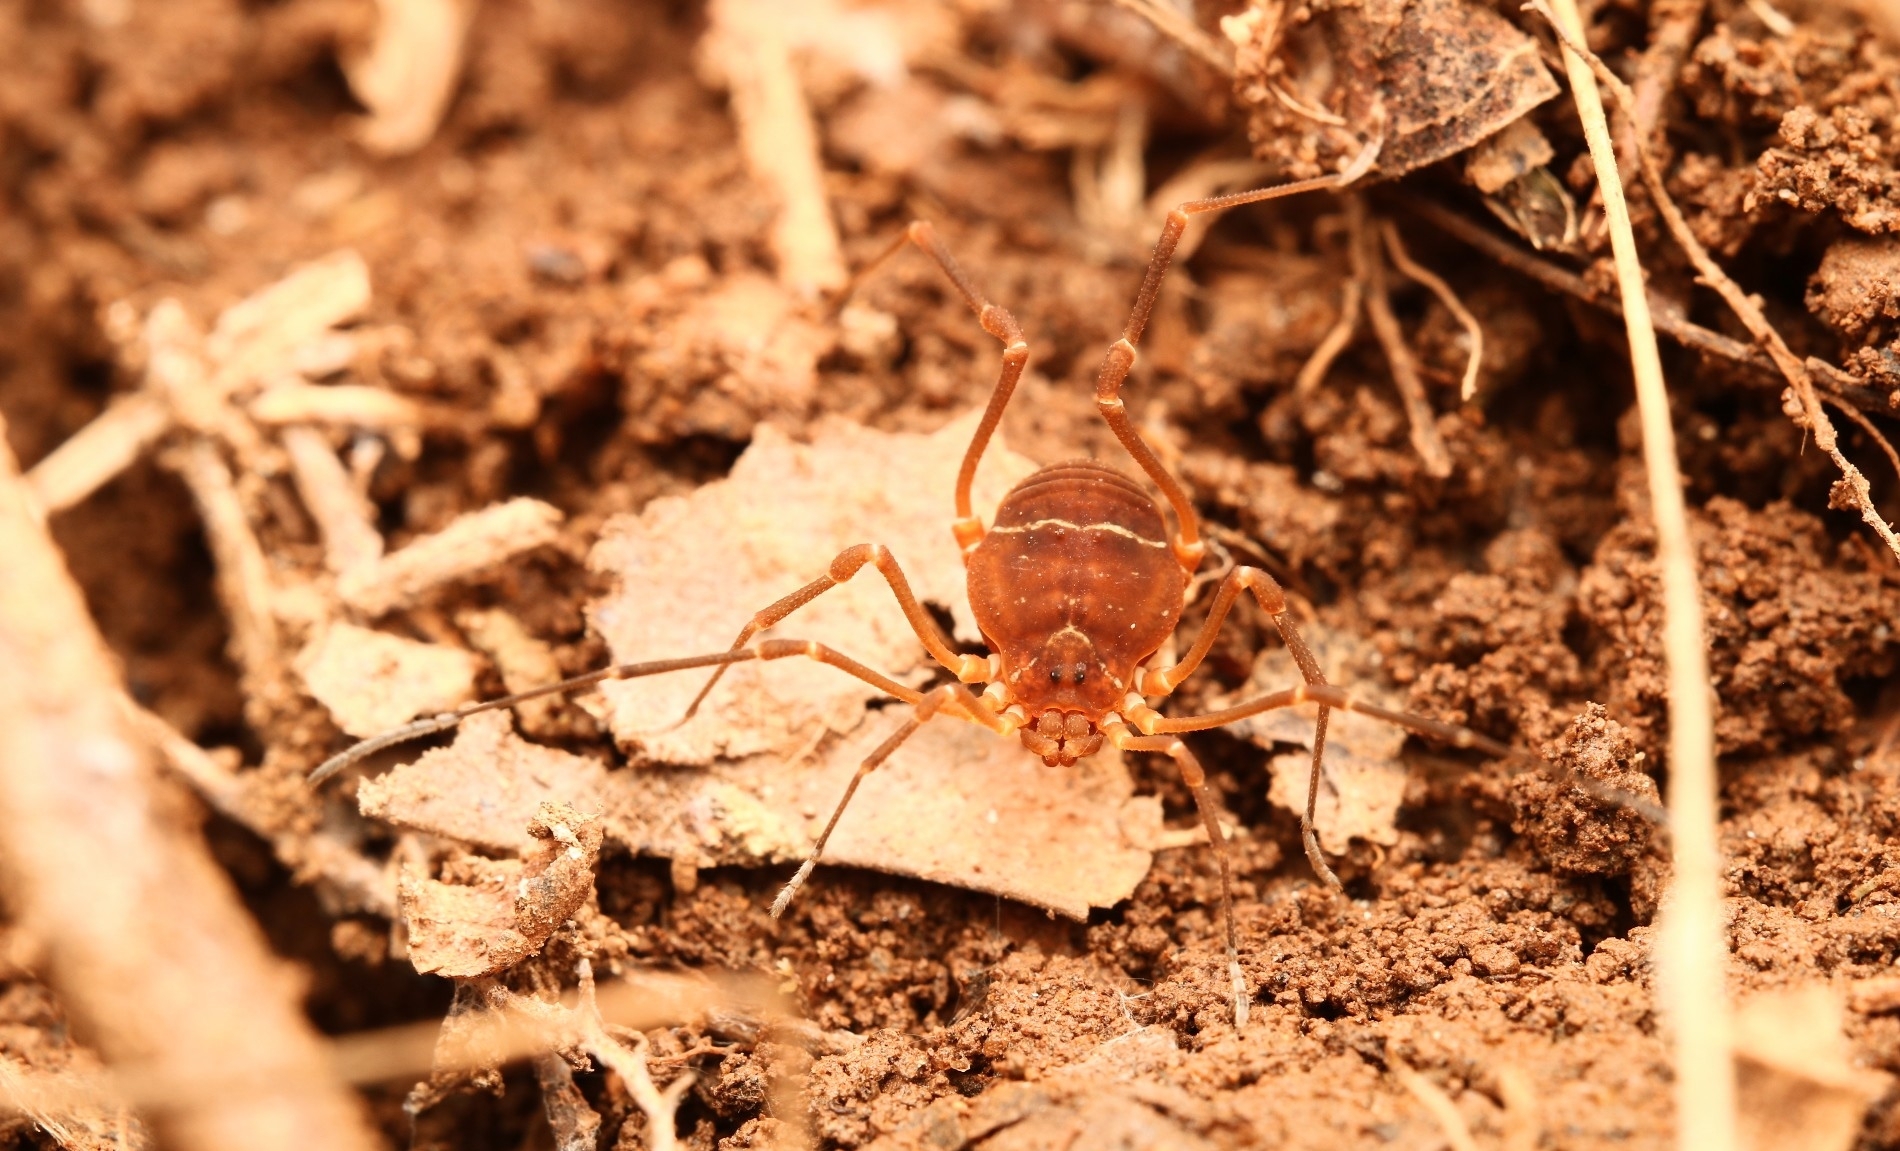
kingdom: Animalia
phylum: Arthropoda
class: Arachnida
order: Opiliones
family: Cosmetidae
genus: Libitioides
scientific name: Libitioides sayi
